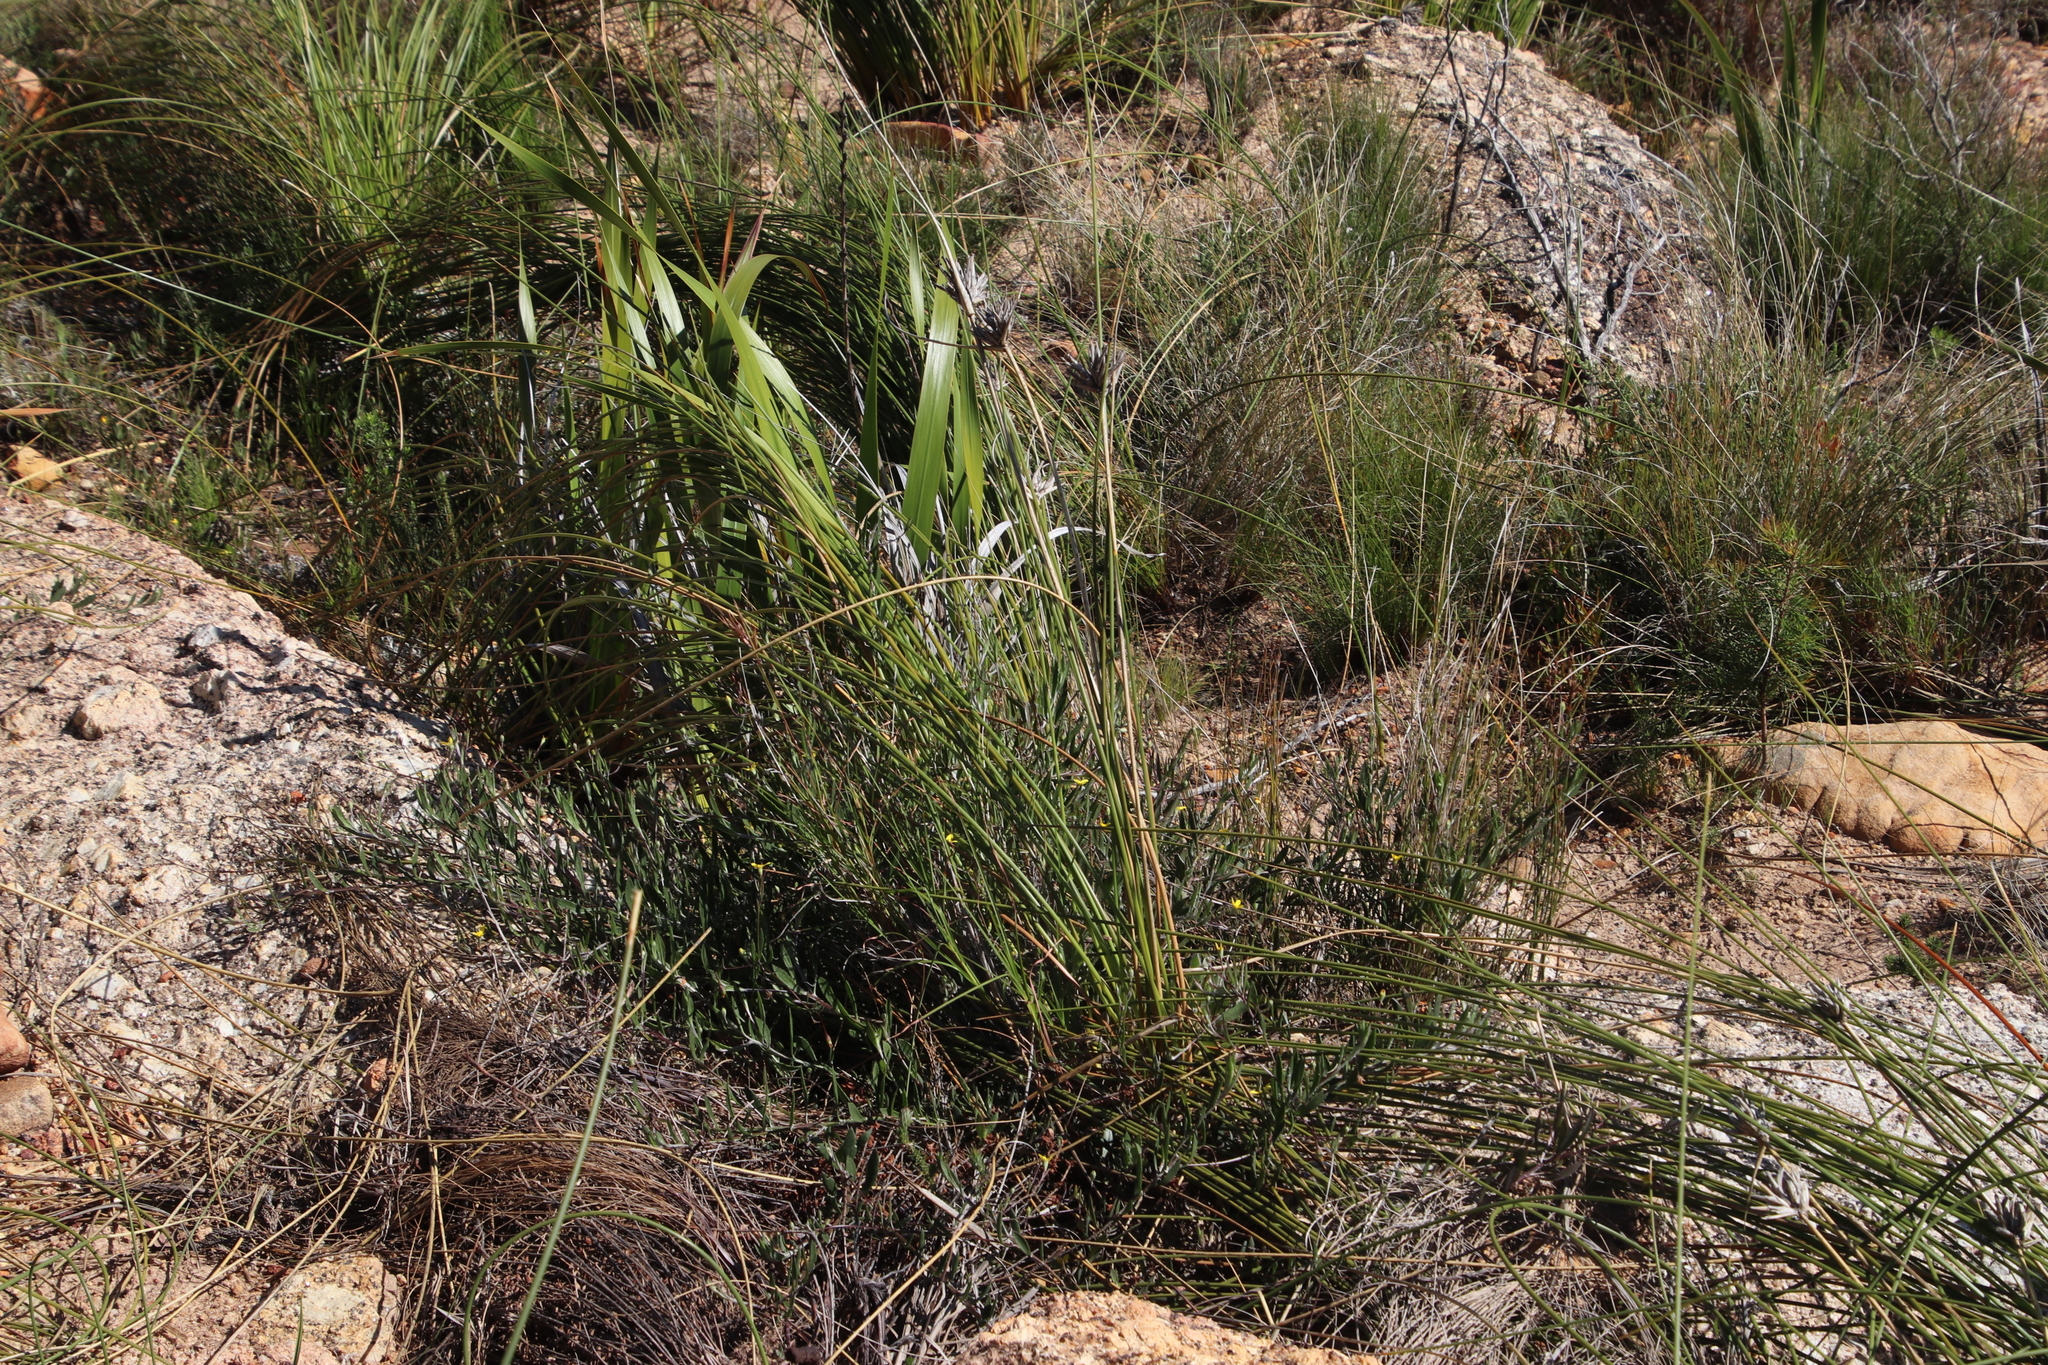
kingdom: Plantae
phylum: Tracheophyta
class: Liliopsida
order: Asparagales
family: Iridaceae
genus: Bobartia
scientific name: Bobartia indica
